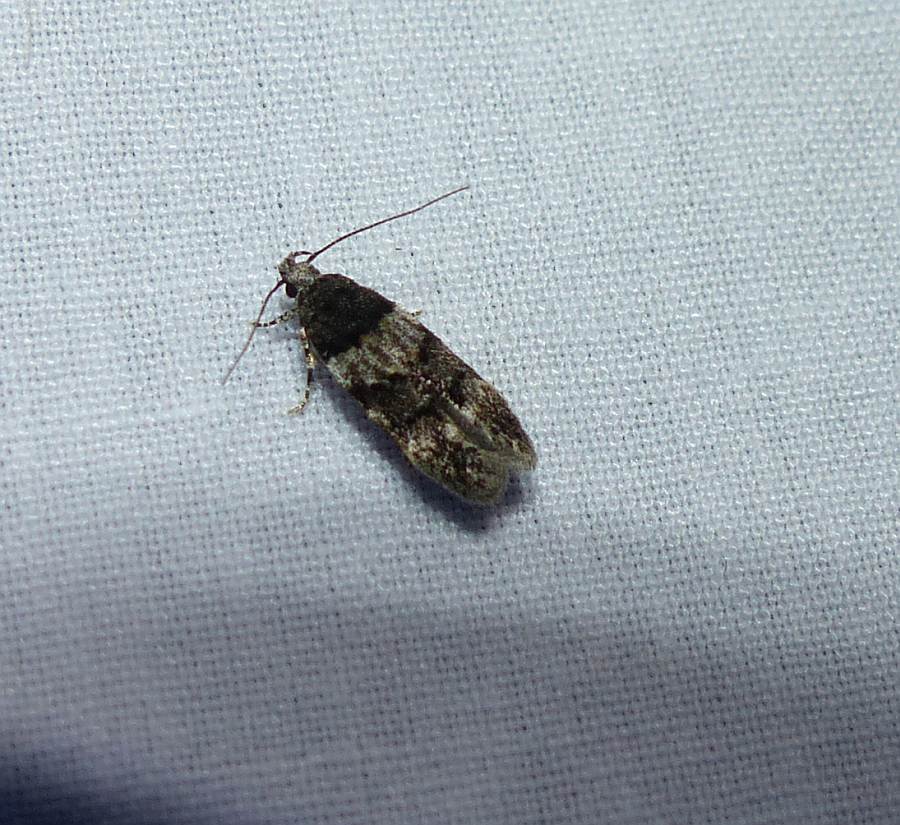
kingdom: Animalia
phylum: Arthropoda
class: Insecta
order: Lepidoptera
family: Gelechiidae
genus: Pubitelphusa
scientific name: Pubitelphusa latifasciella
